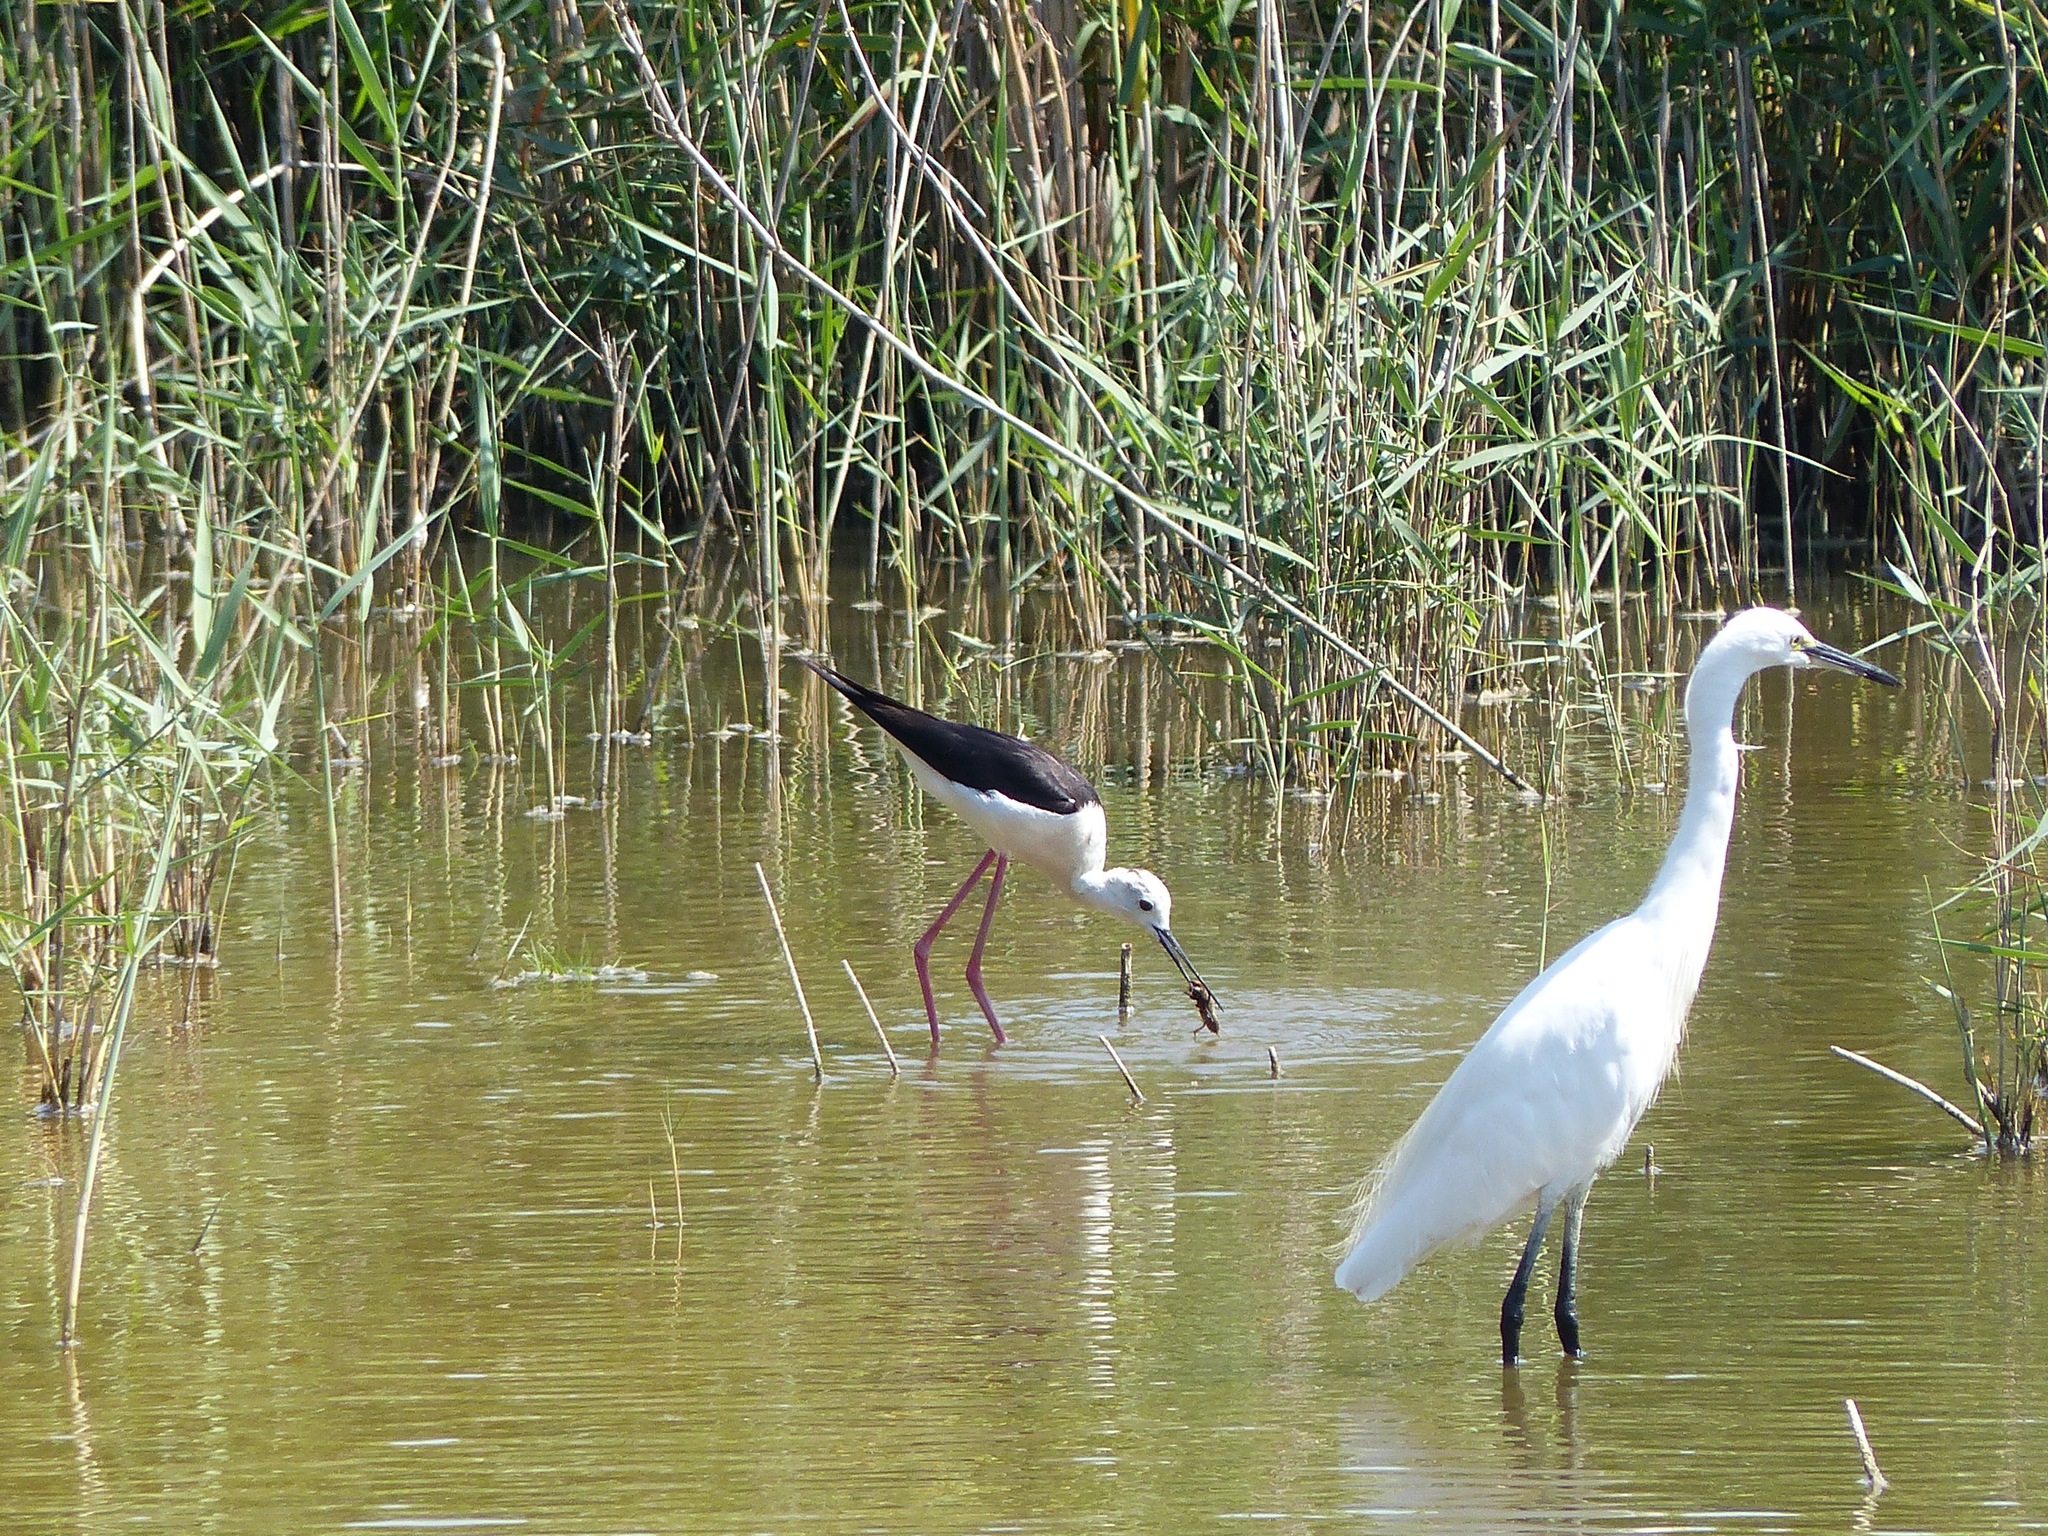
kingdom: Animalia
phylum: Chordata
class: Aves
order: Charadriiformes
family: Recurvirostridae
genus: Himantopus
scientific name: Himantopus himantopus
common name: Black-winged stilt
